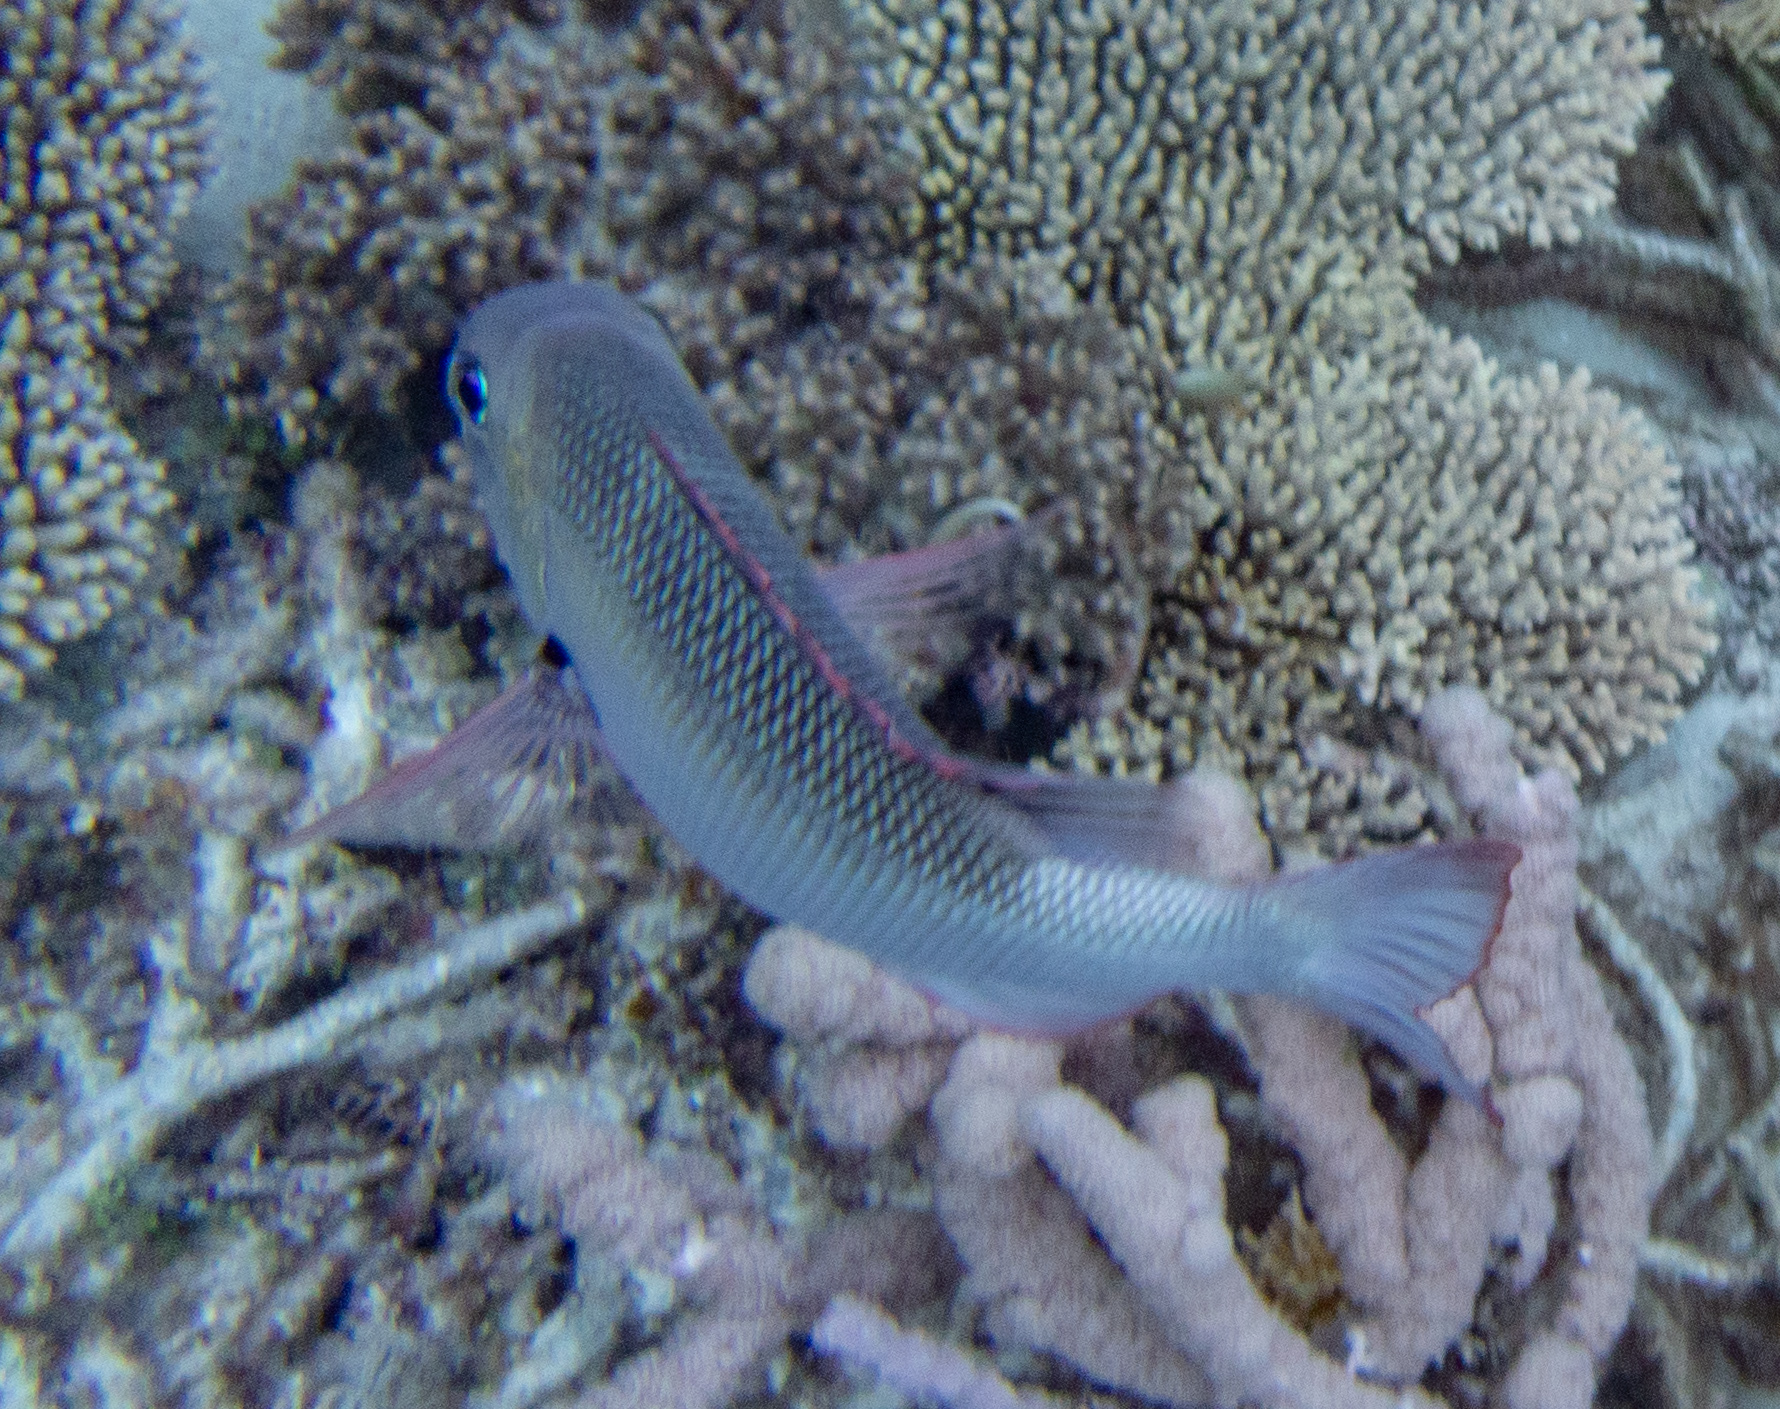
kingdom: Animalia
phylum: Chordata
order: Perciformes
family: Lethrinidae
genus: Monotaxis
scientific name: Monotaxis grandoculis
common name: Bigeye emperor
